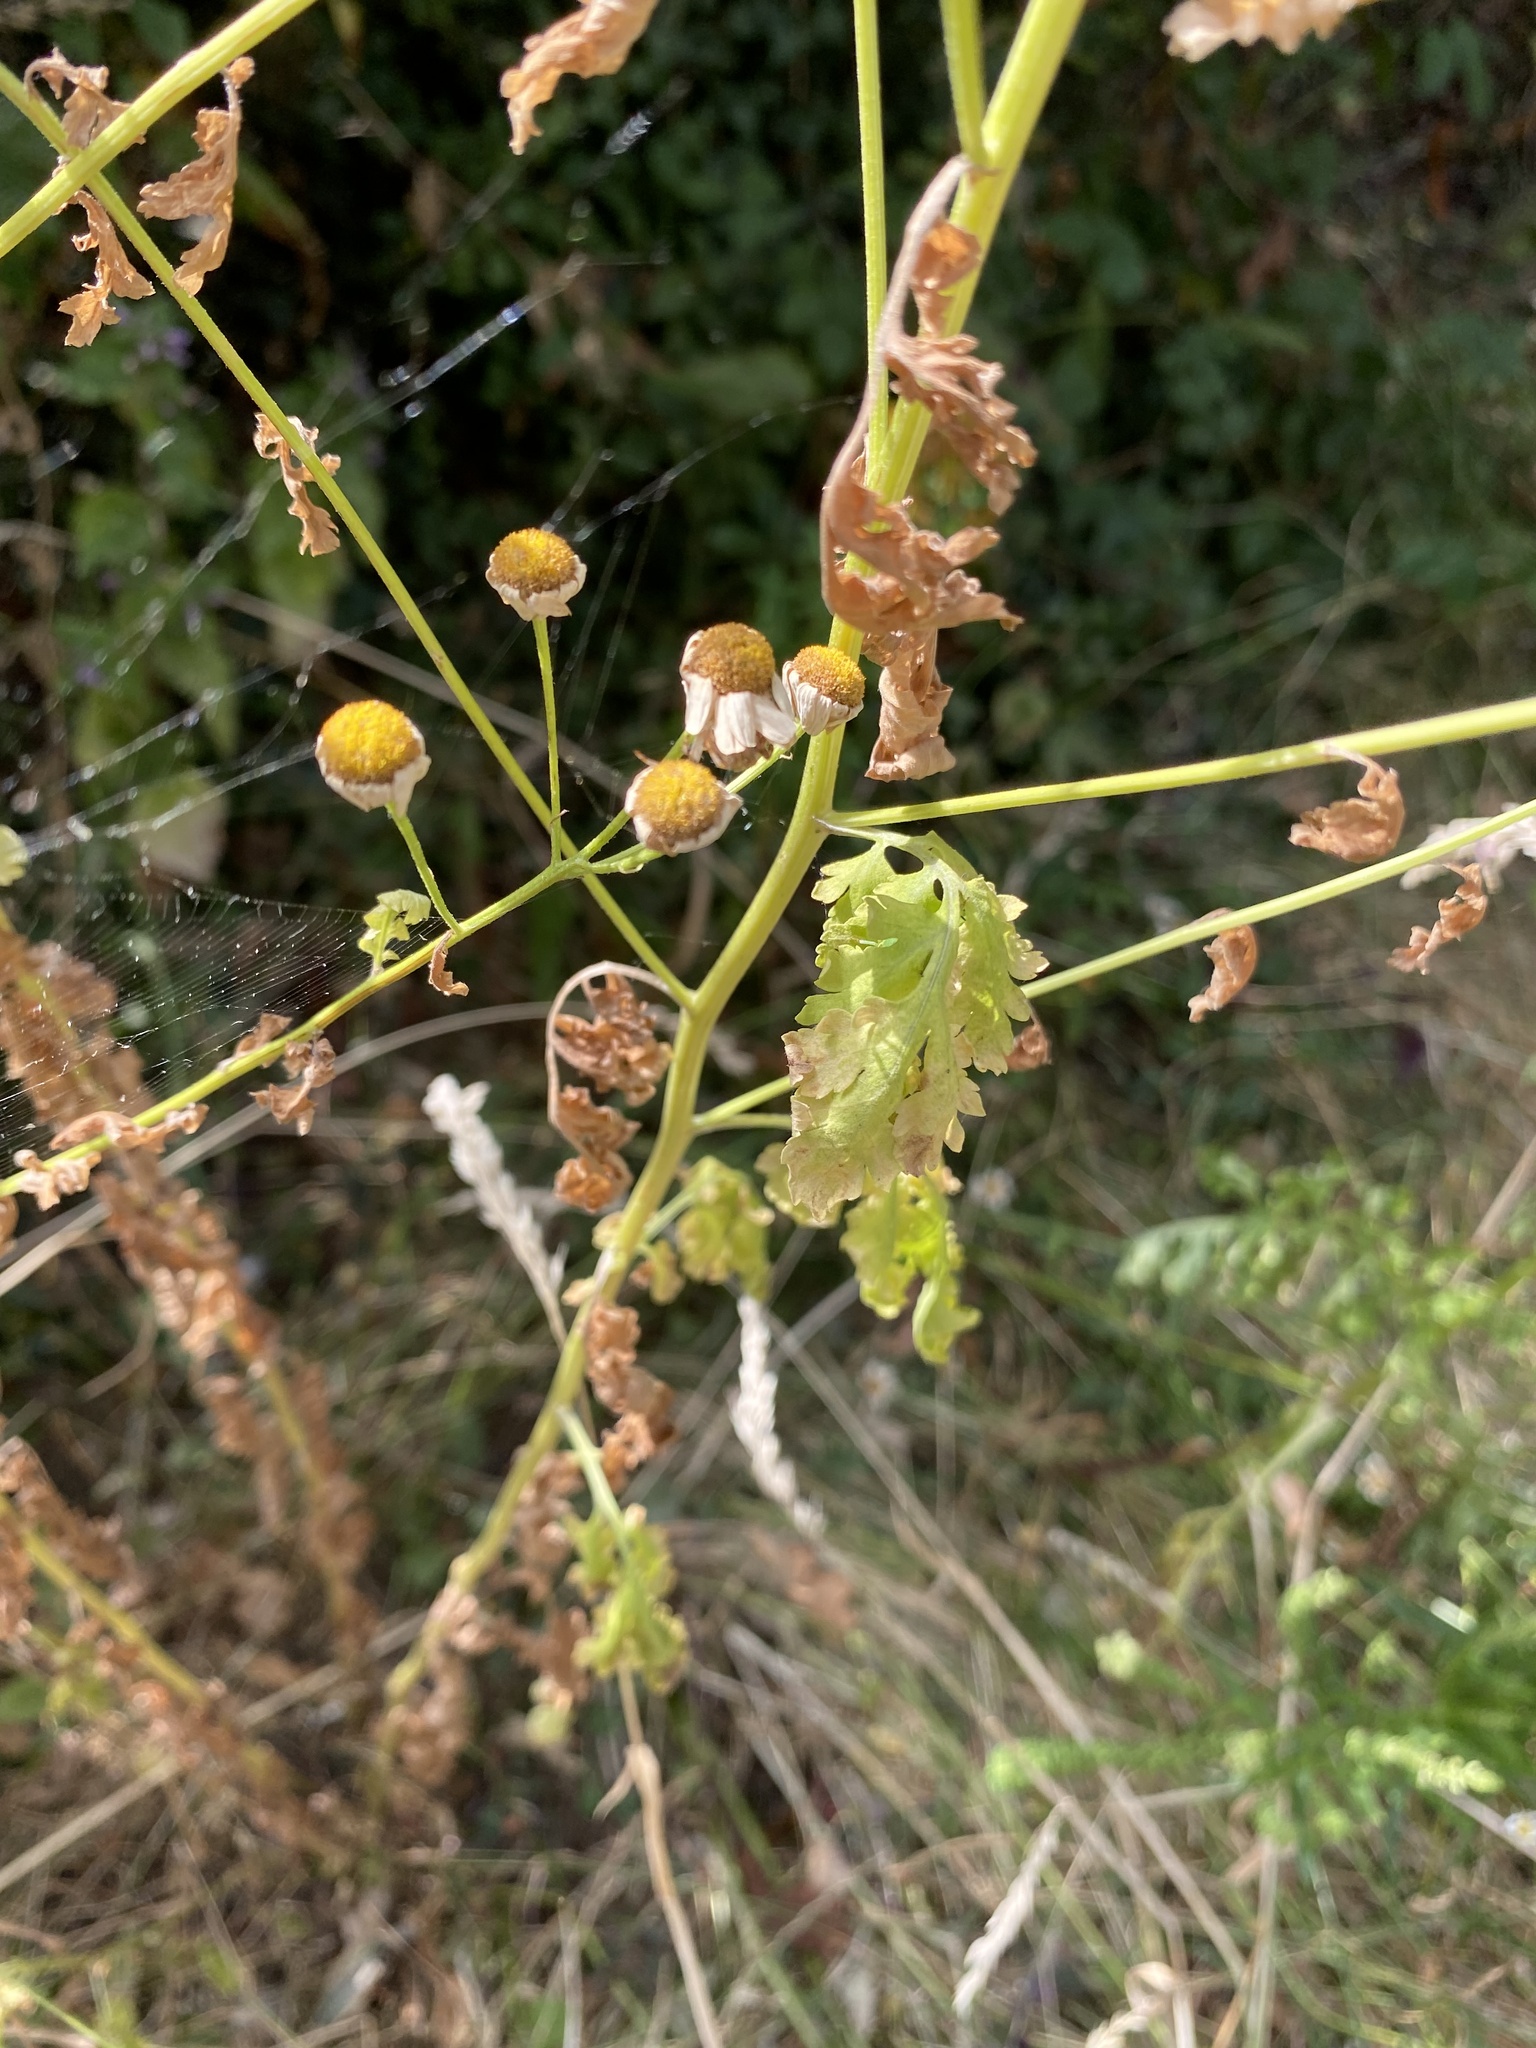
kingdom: Plantae
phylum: Tracheophyta
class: Magnoliopsida
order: Asterales
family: Asteraceae
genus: Tanacetum
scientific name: Tanacetum parthenium
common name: Feverfew
